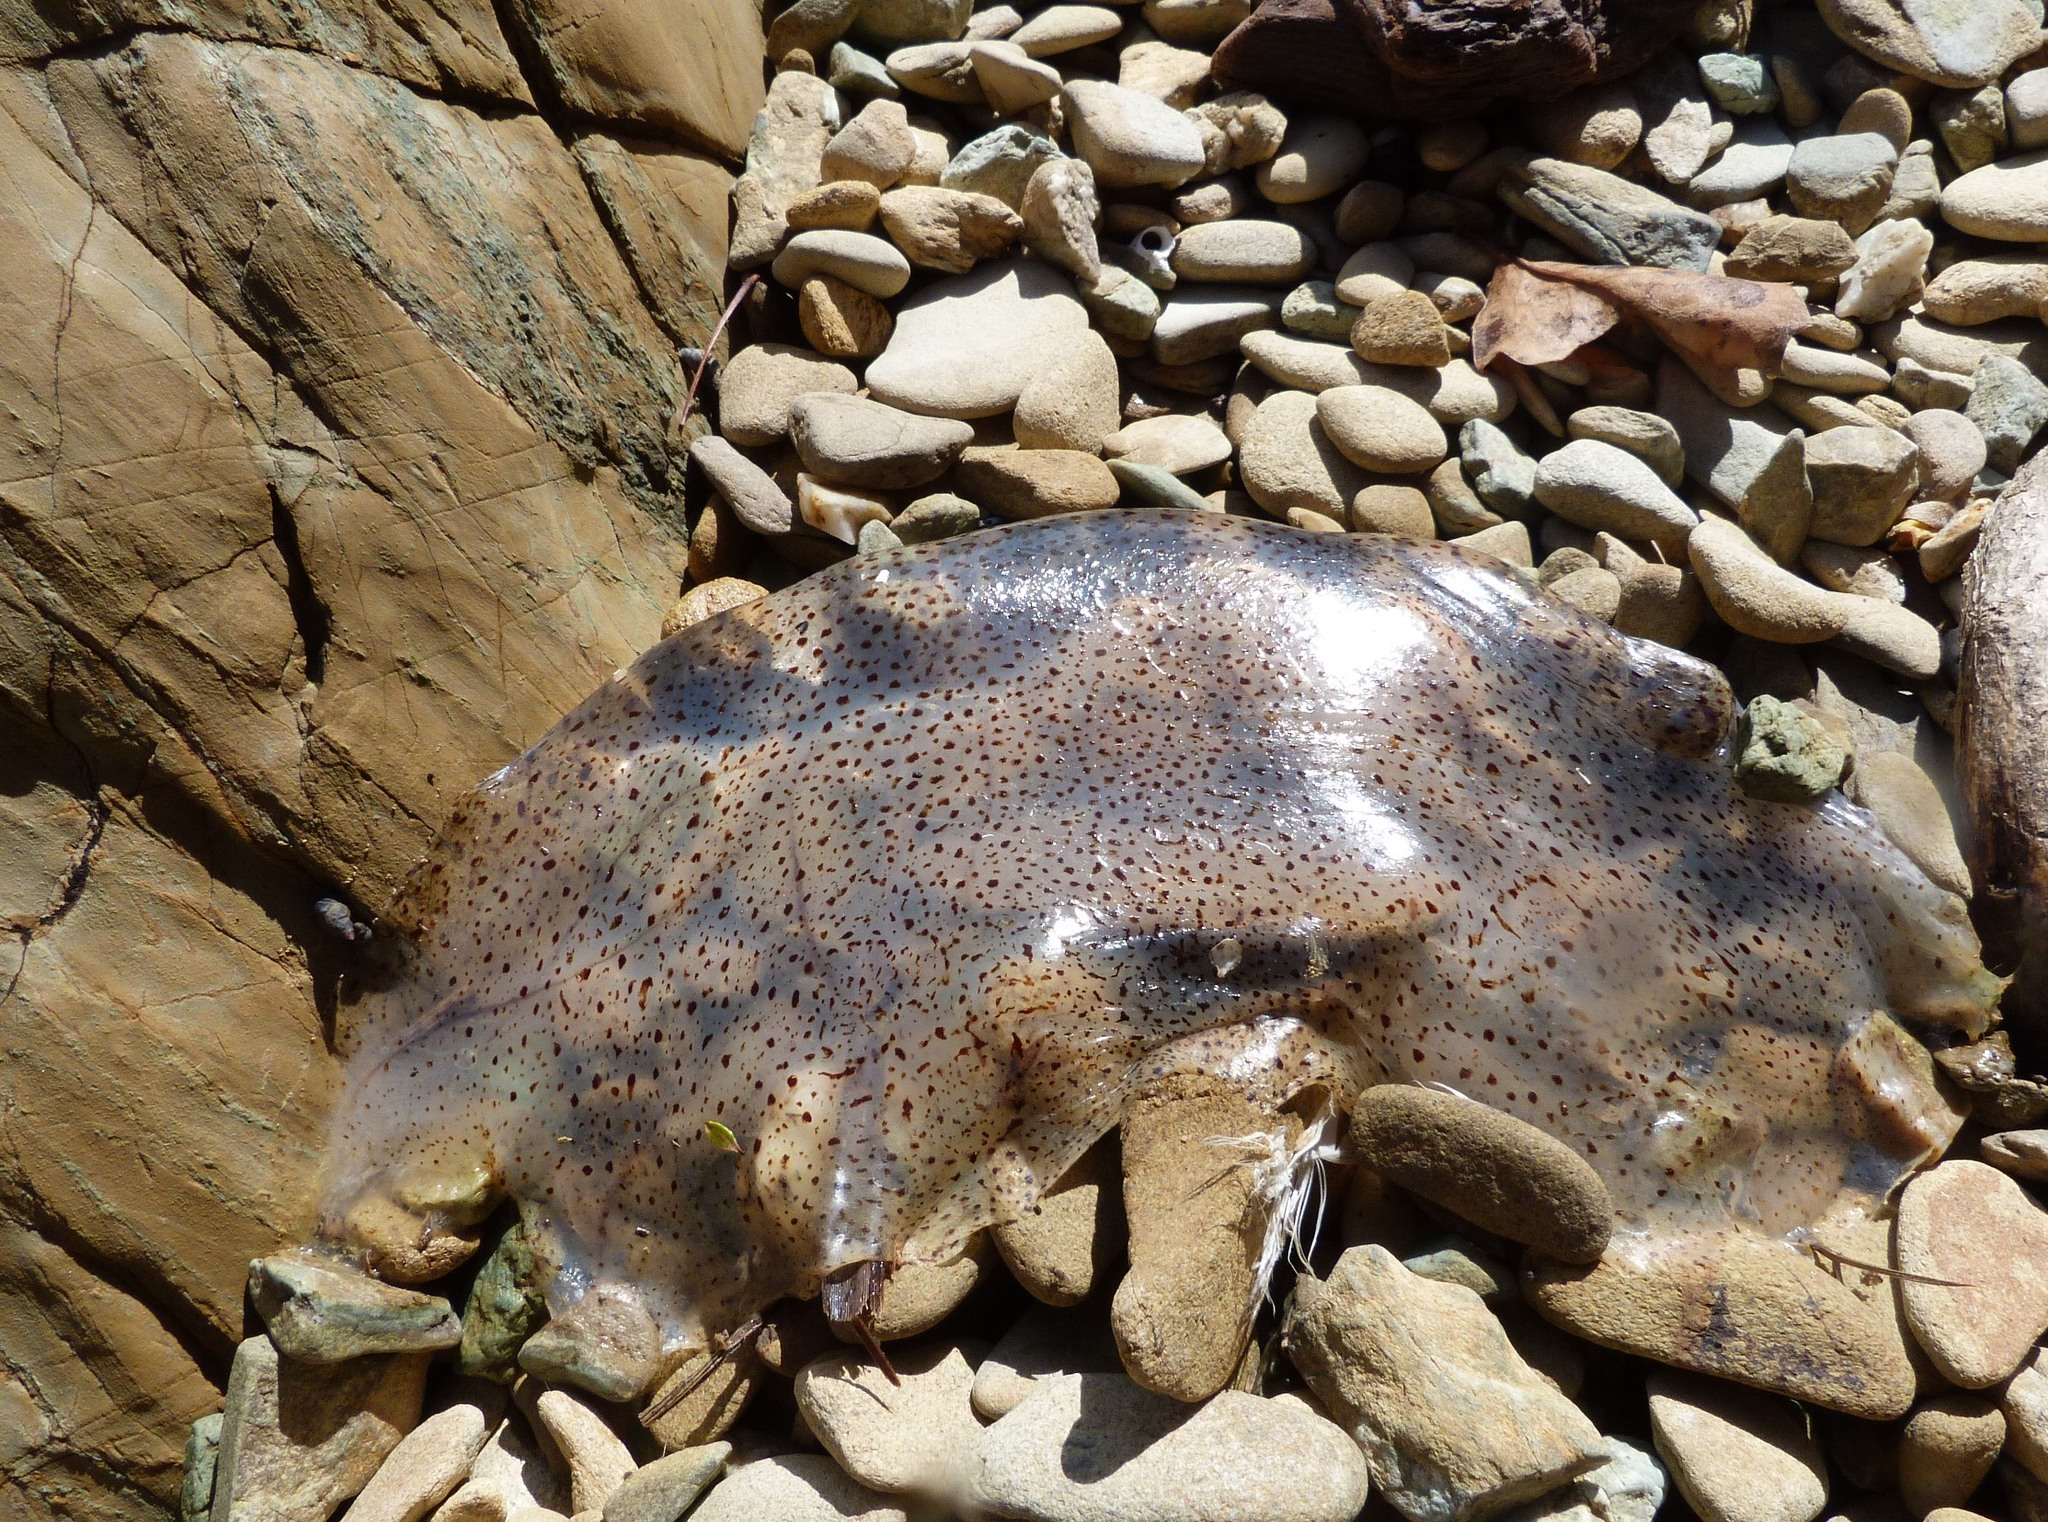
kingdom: Animalia
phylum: Cnidaria
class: Scyphozoa
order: Semaeostomeae
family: Cyaneidae
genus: Desmonema
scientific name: Desmonema gaudichaudi
